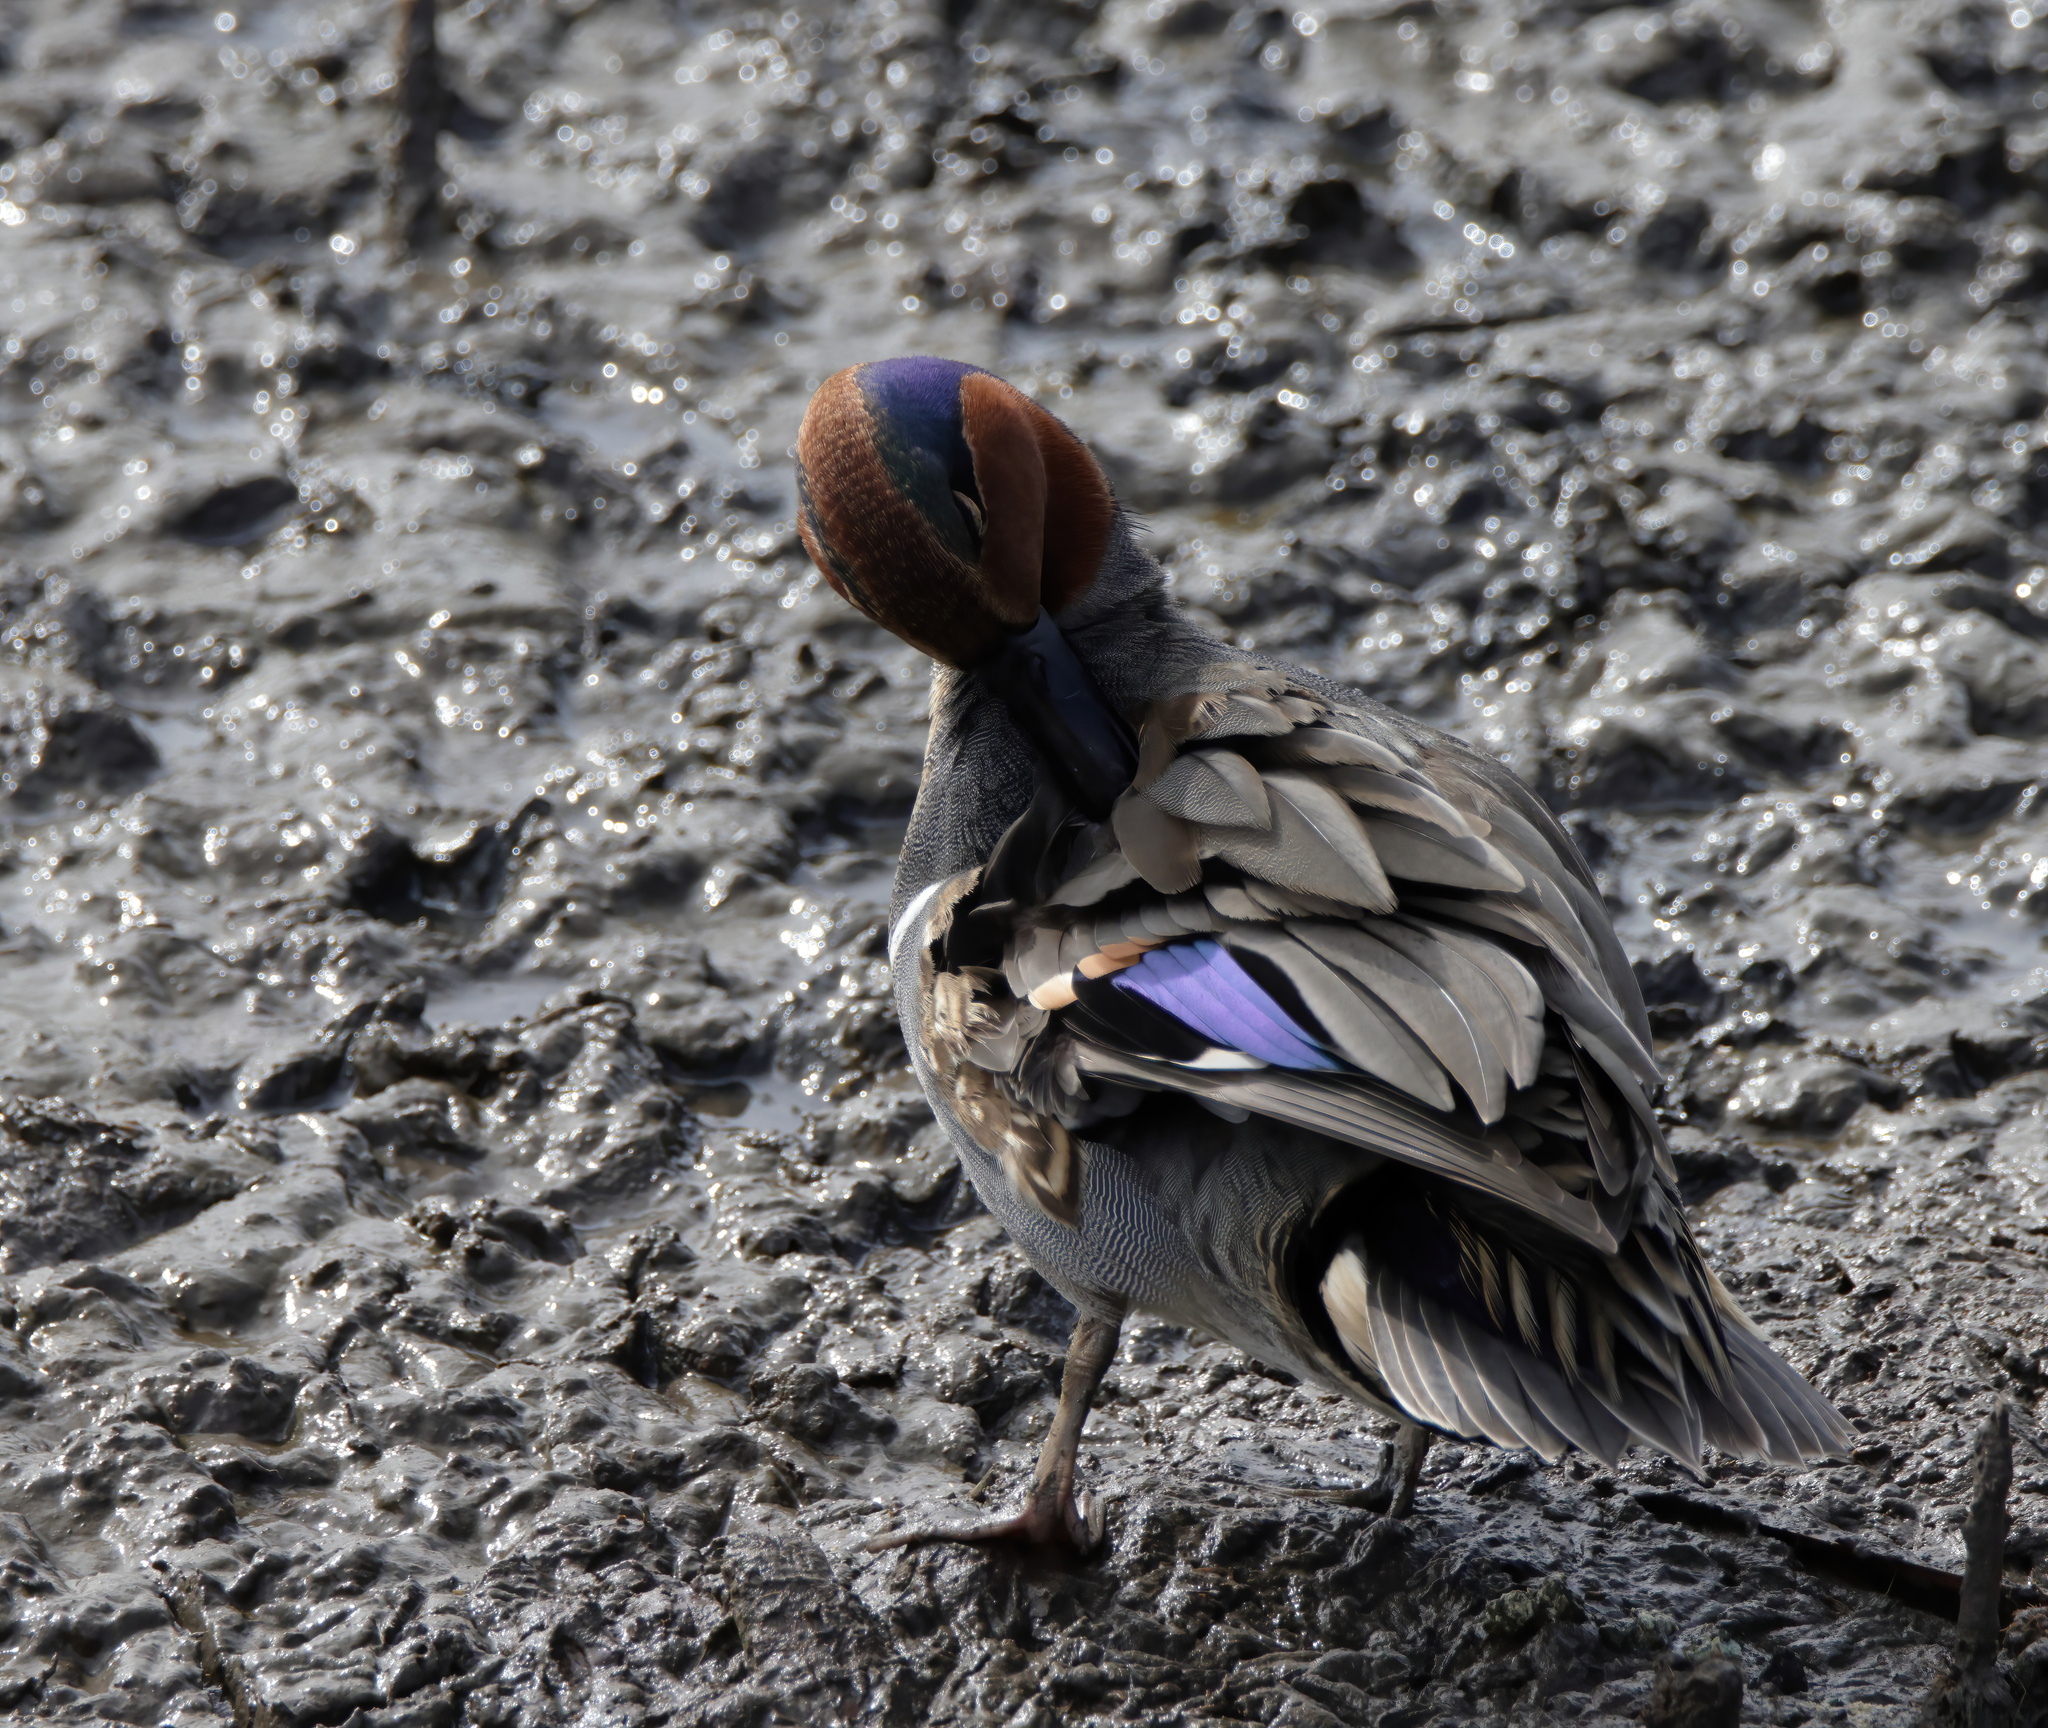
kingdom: Animalia
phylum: Chordata
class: Aves
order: Anseriformes
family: Anatidae
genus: Anas
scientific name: Anas crecca
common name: Eurasian teal
